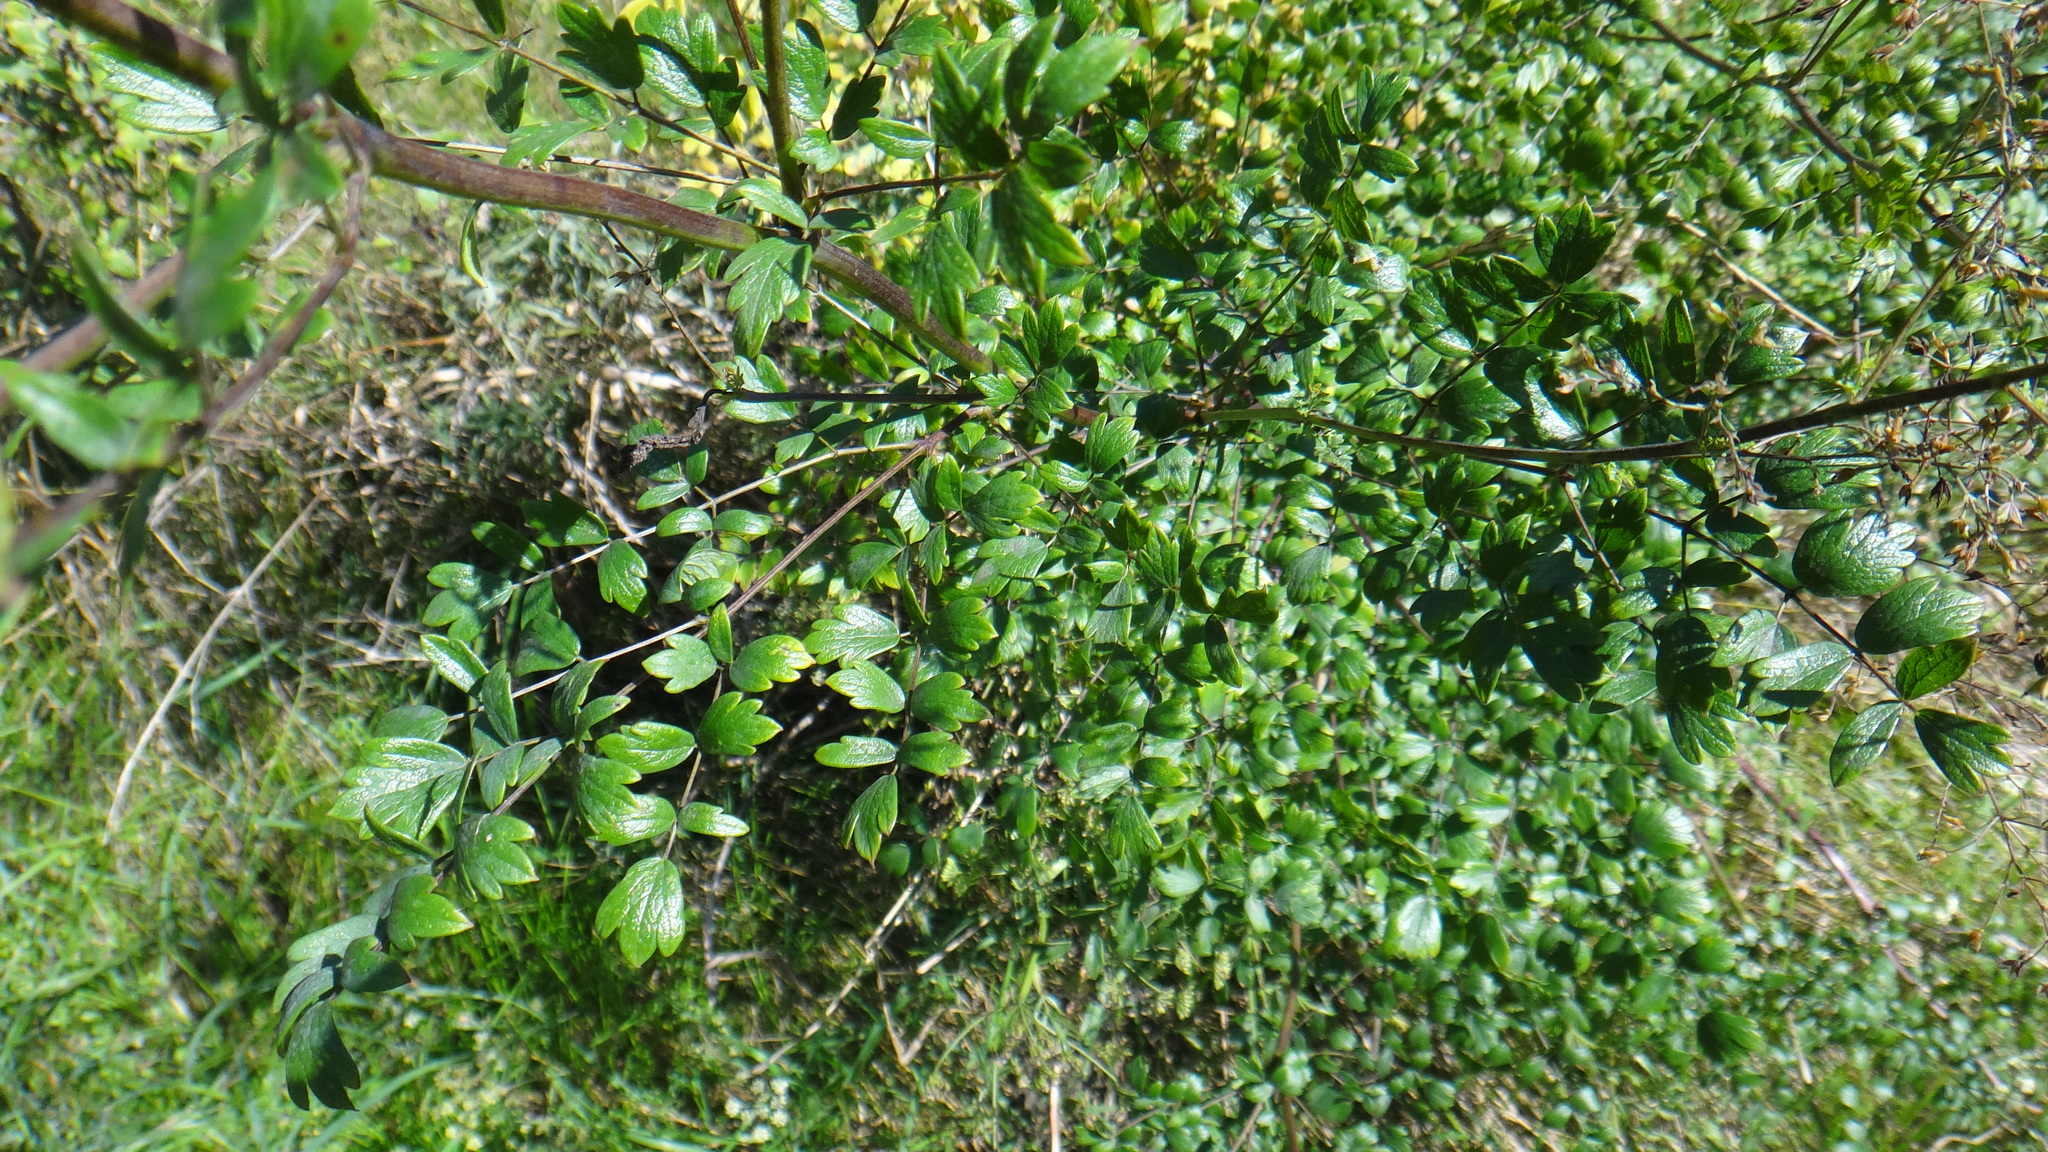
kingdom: Plantae
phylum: Tracheophyta
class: Magnoliopsida
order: Ranunculales
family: Ranunculaceae
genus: Thalictrum
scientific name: Thalictrum minus
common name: Lesser meadow-rue
